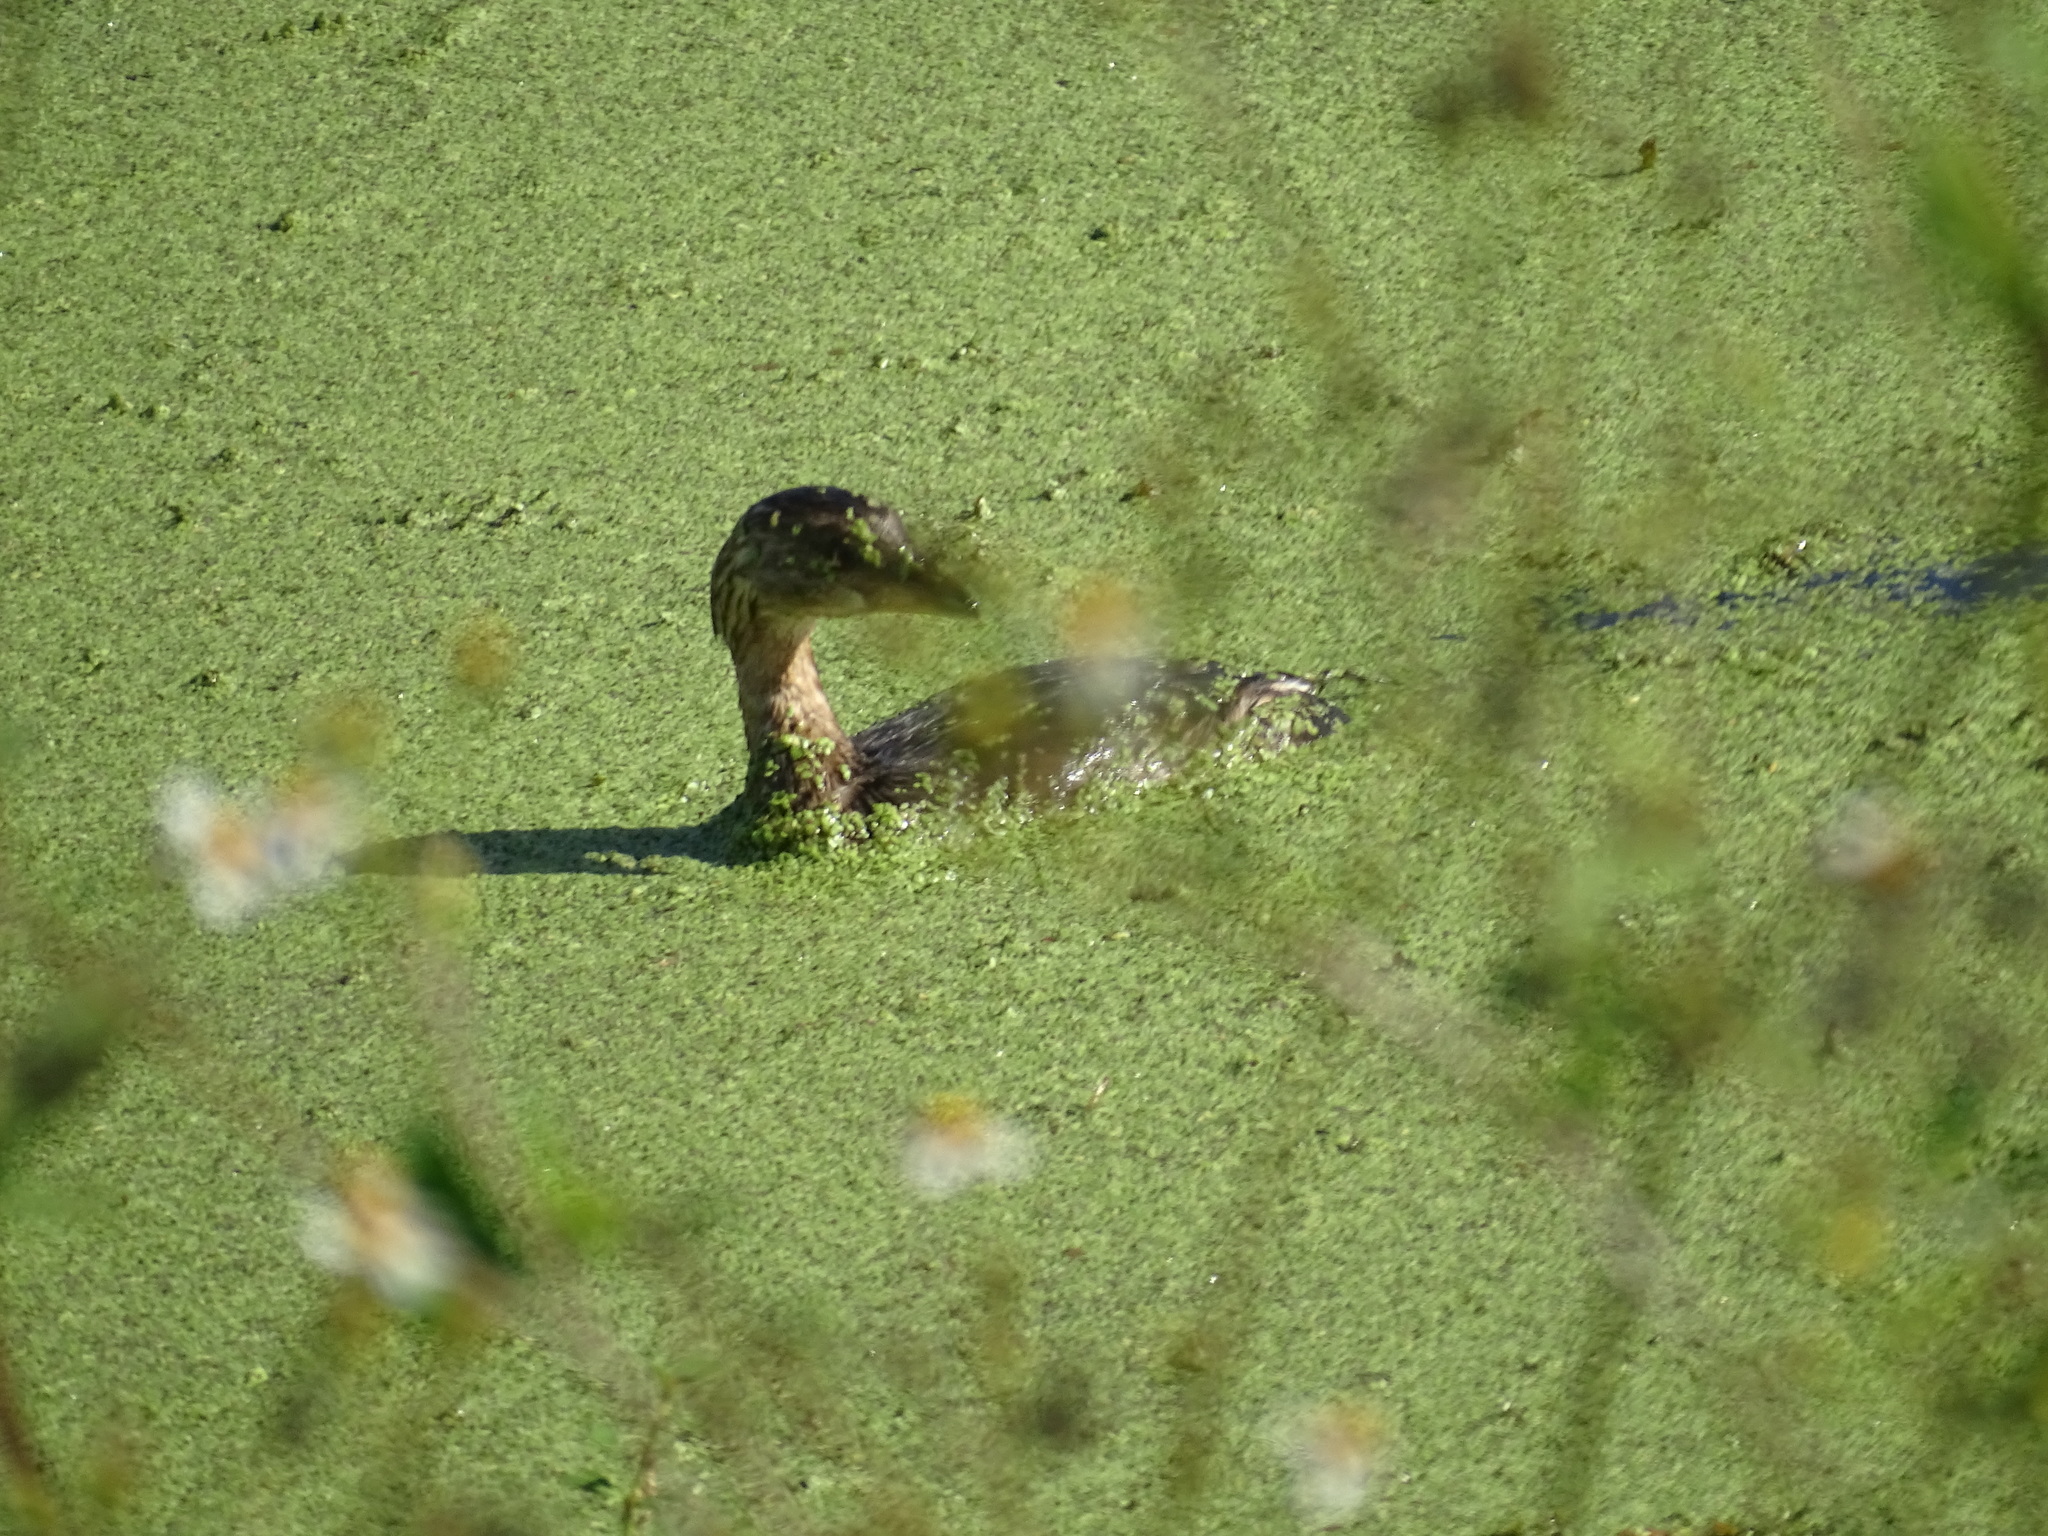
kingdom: Animalia
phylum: Chordata
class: Aves
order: Podicipediformes
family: Podicipedidae
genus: Podilymbus
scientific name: Podilymbus podiceps
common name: Pied-billed grebe
